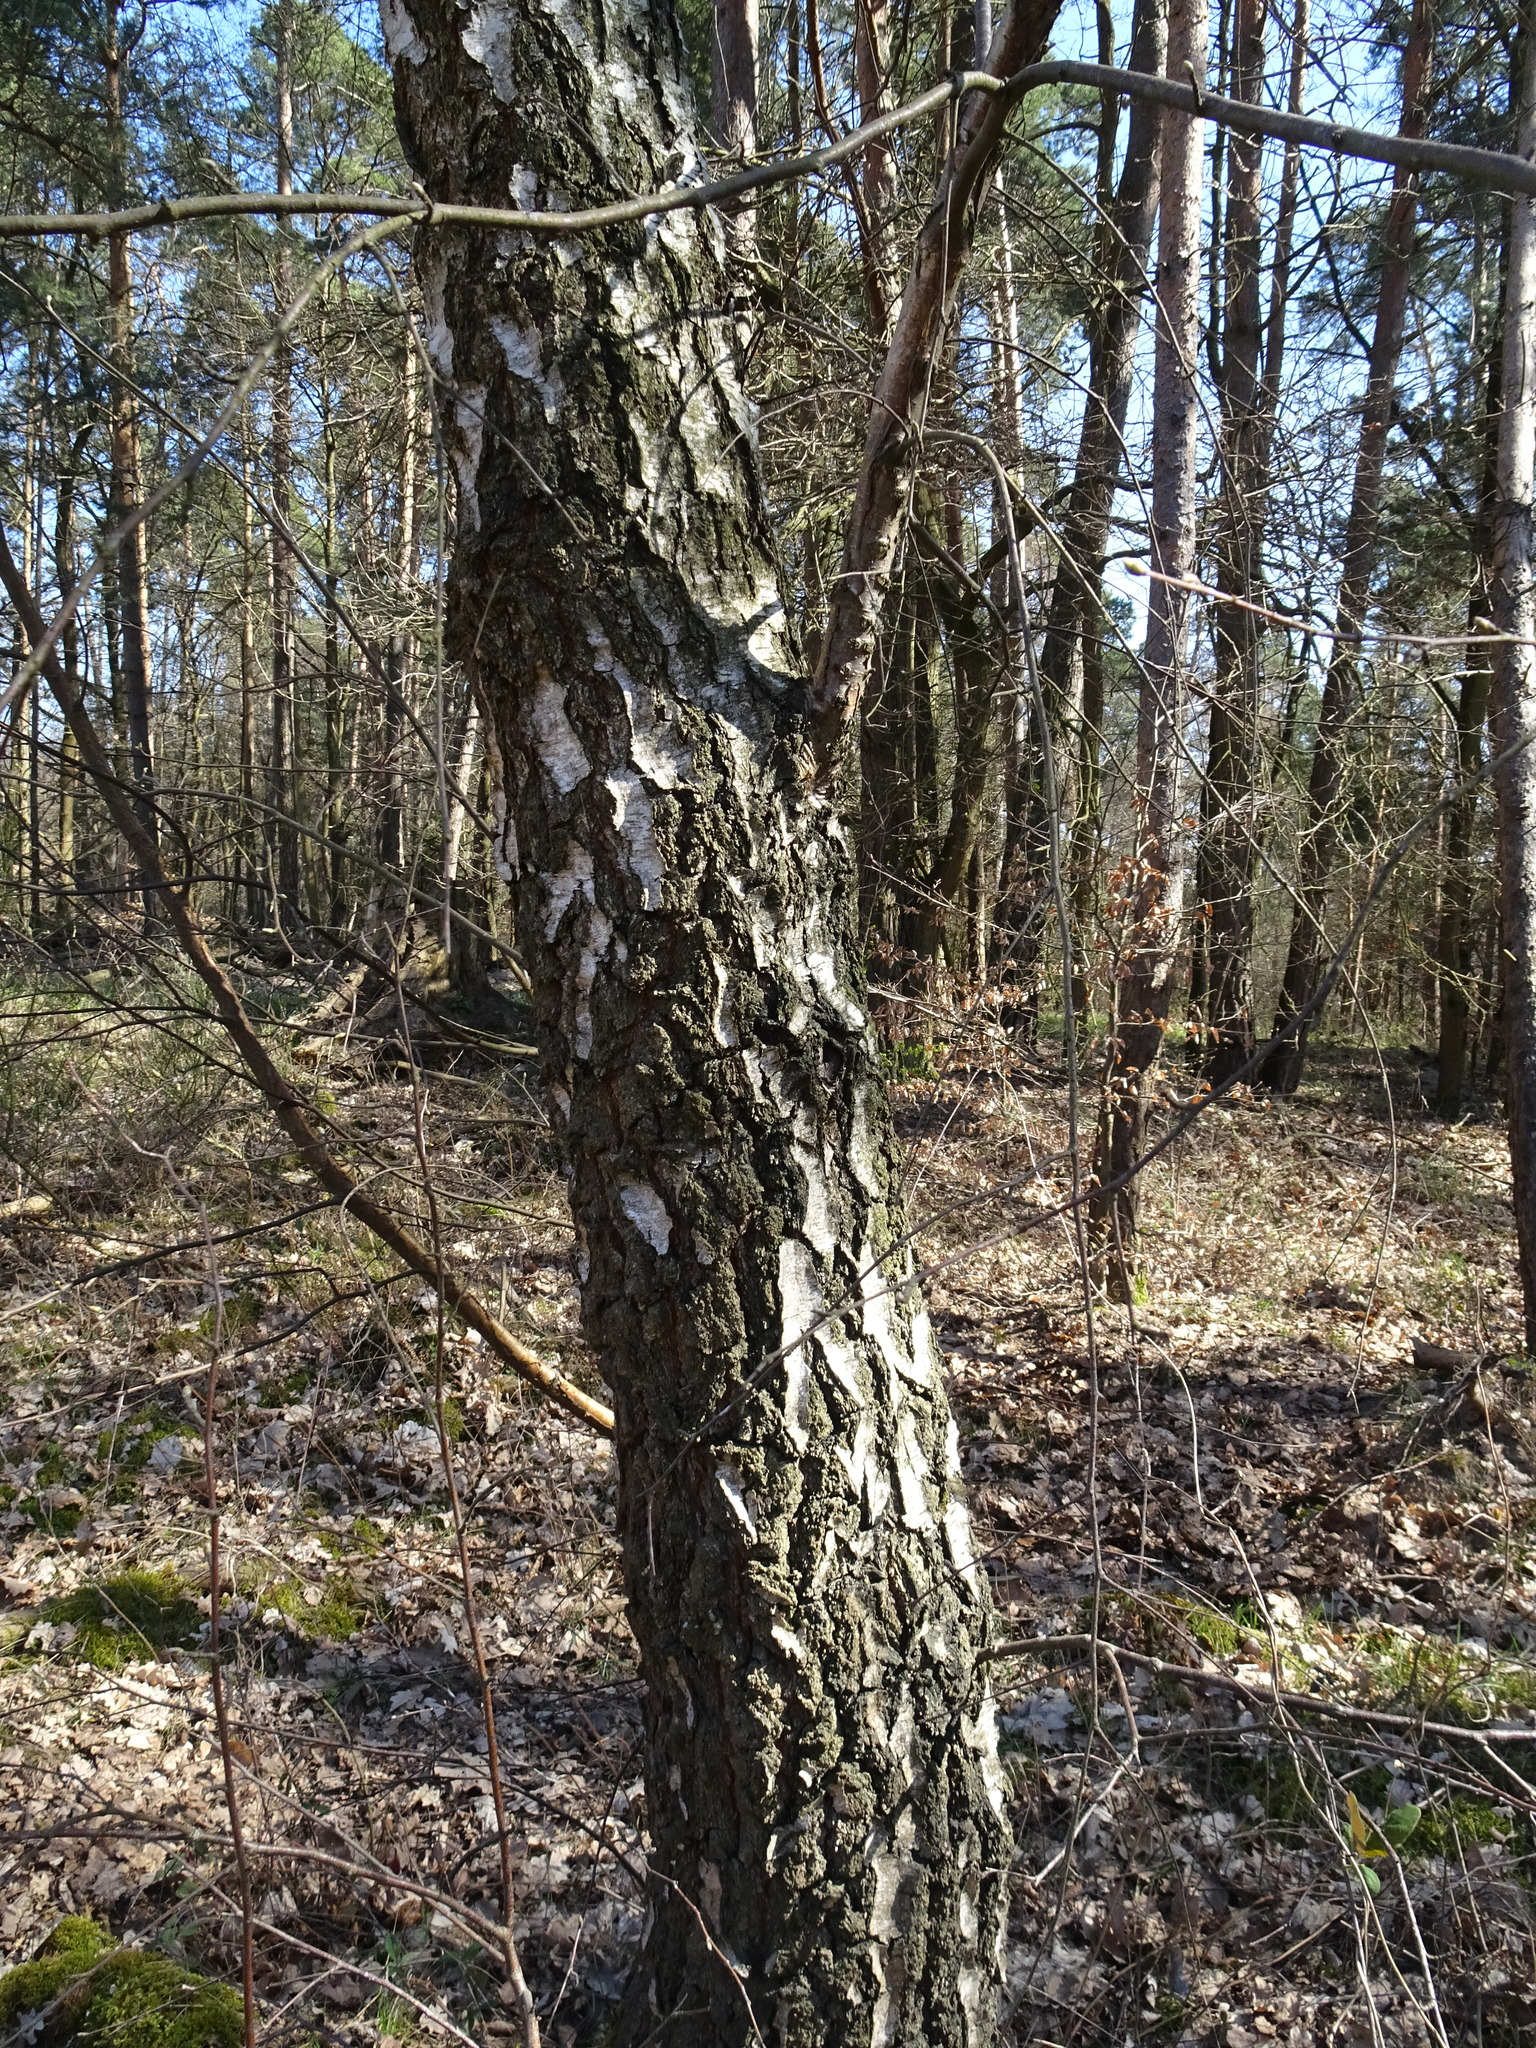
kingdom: Plantae
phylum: Tracheophyta
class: Magnoliopsida
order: Fagales
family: Betulaceae
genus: Betula
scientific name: Betula pendula
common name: Silver birch
